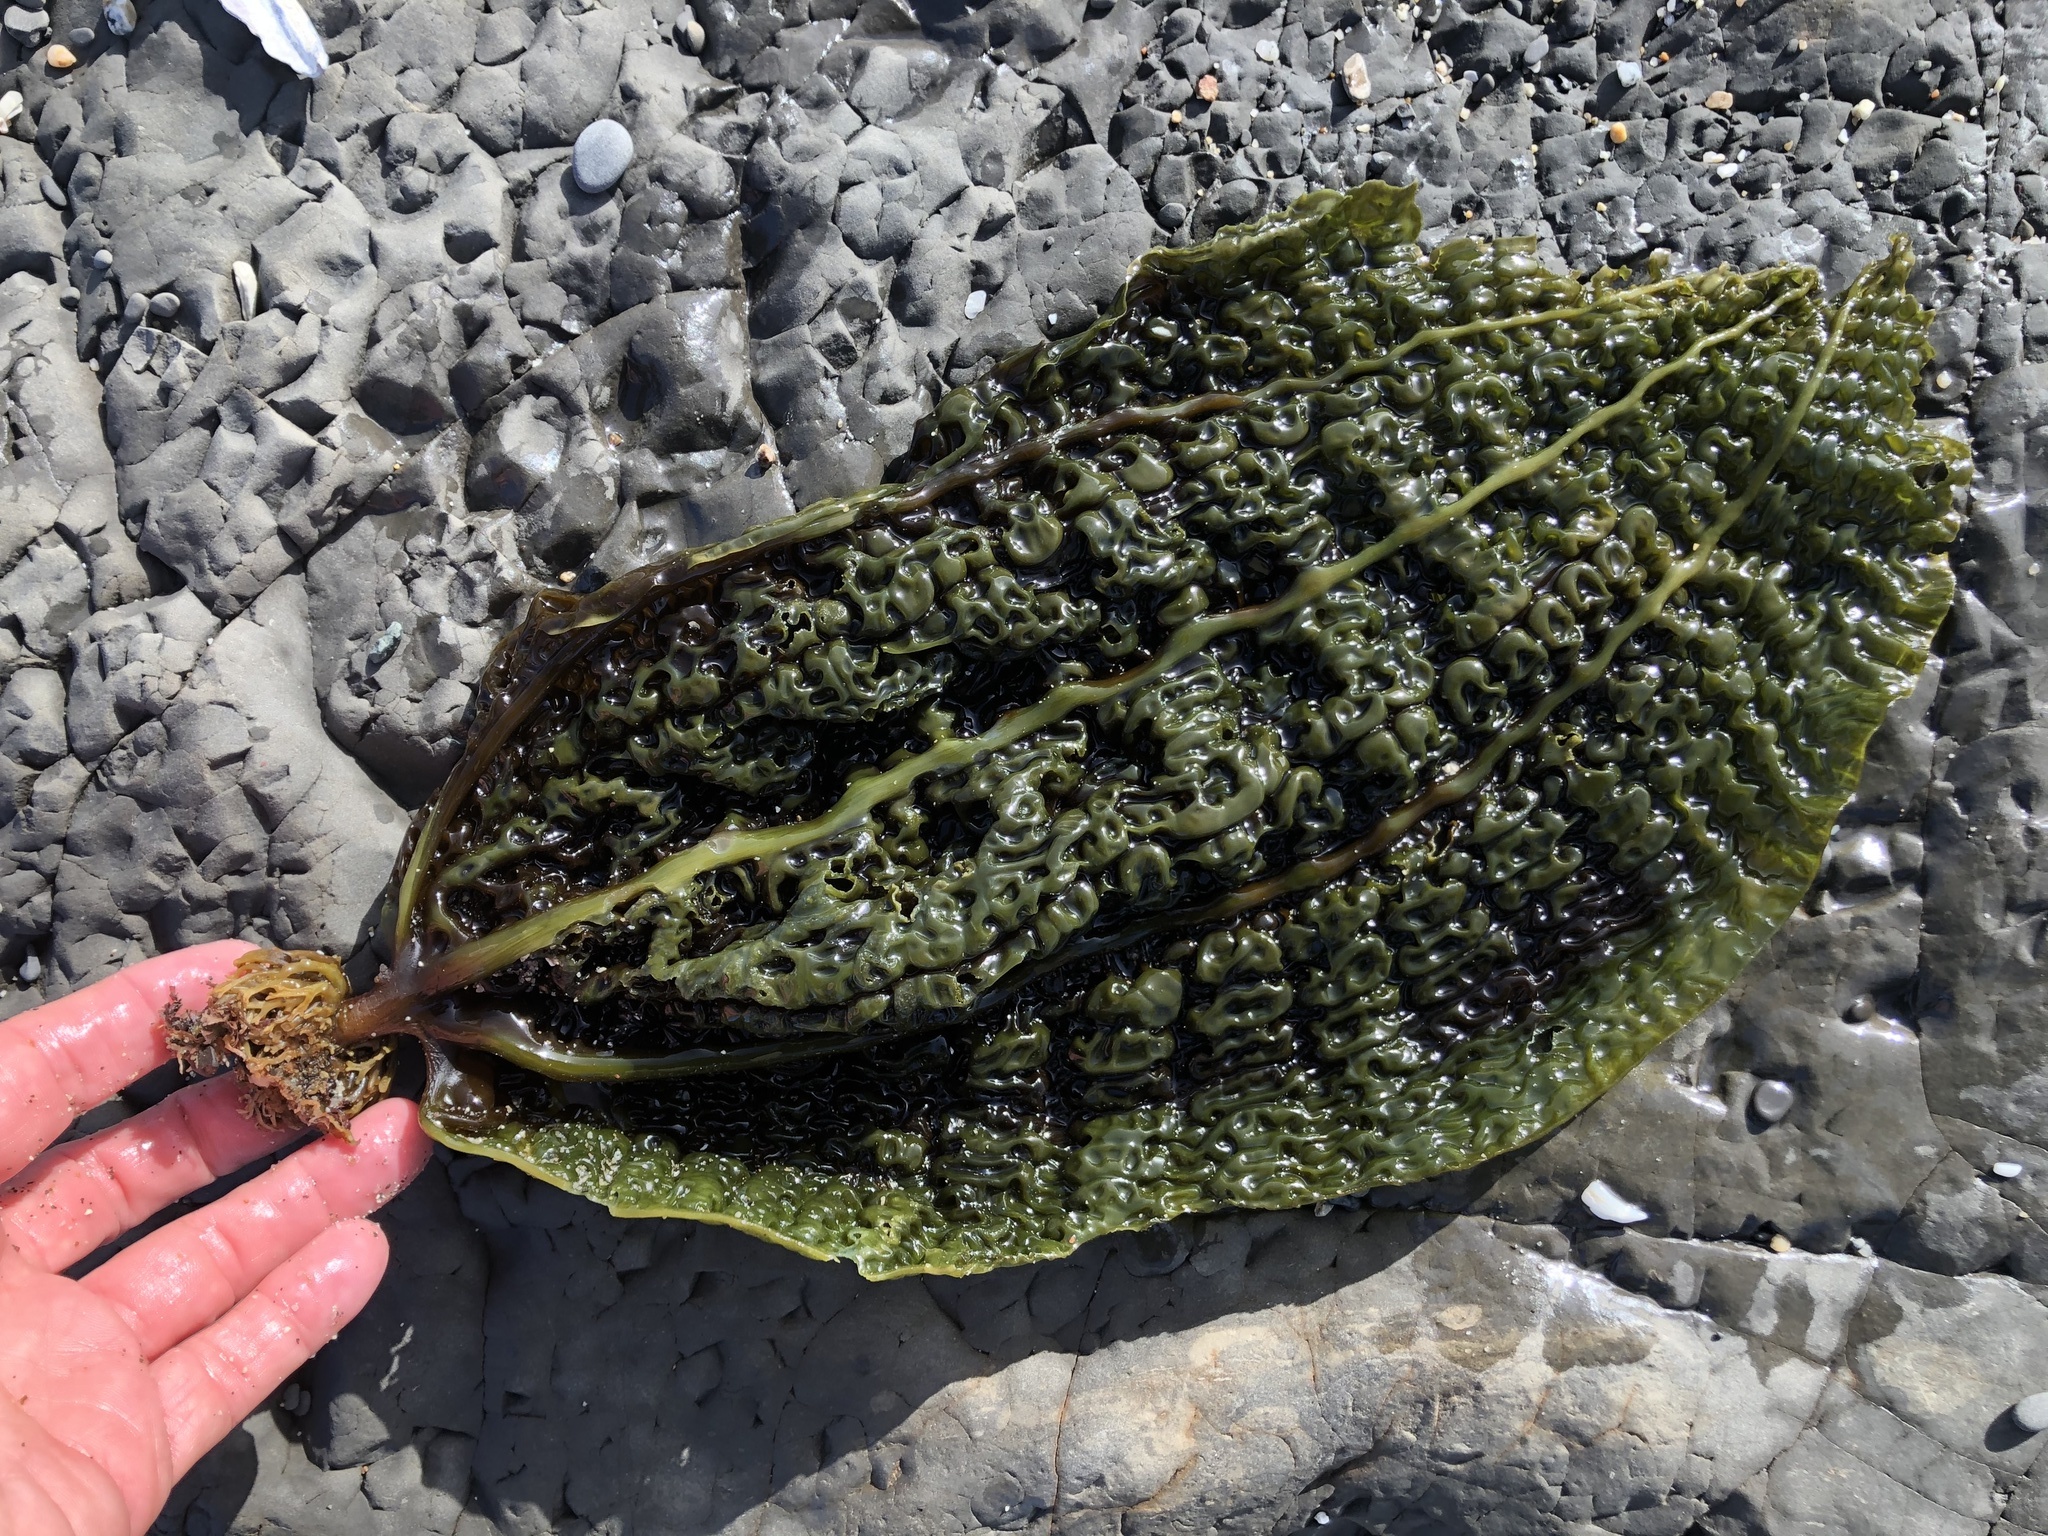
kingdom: Chromista
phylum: Ochrophyta
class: Phaeophyceae
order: Laminariales
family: Costariaceae
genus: Costaria
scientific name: Costaria costata
